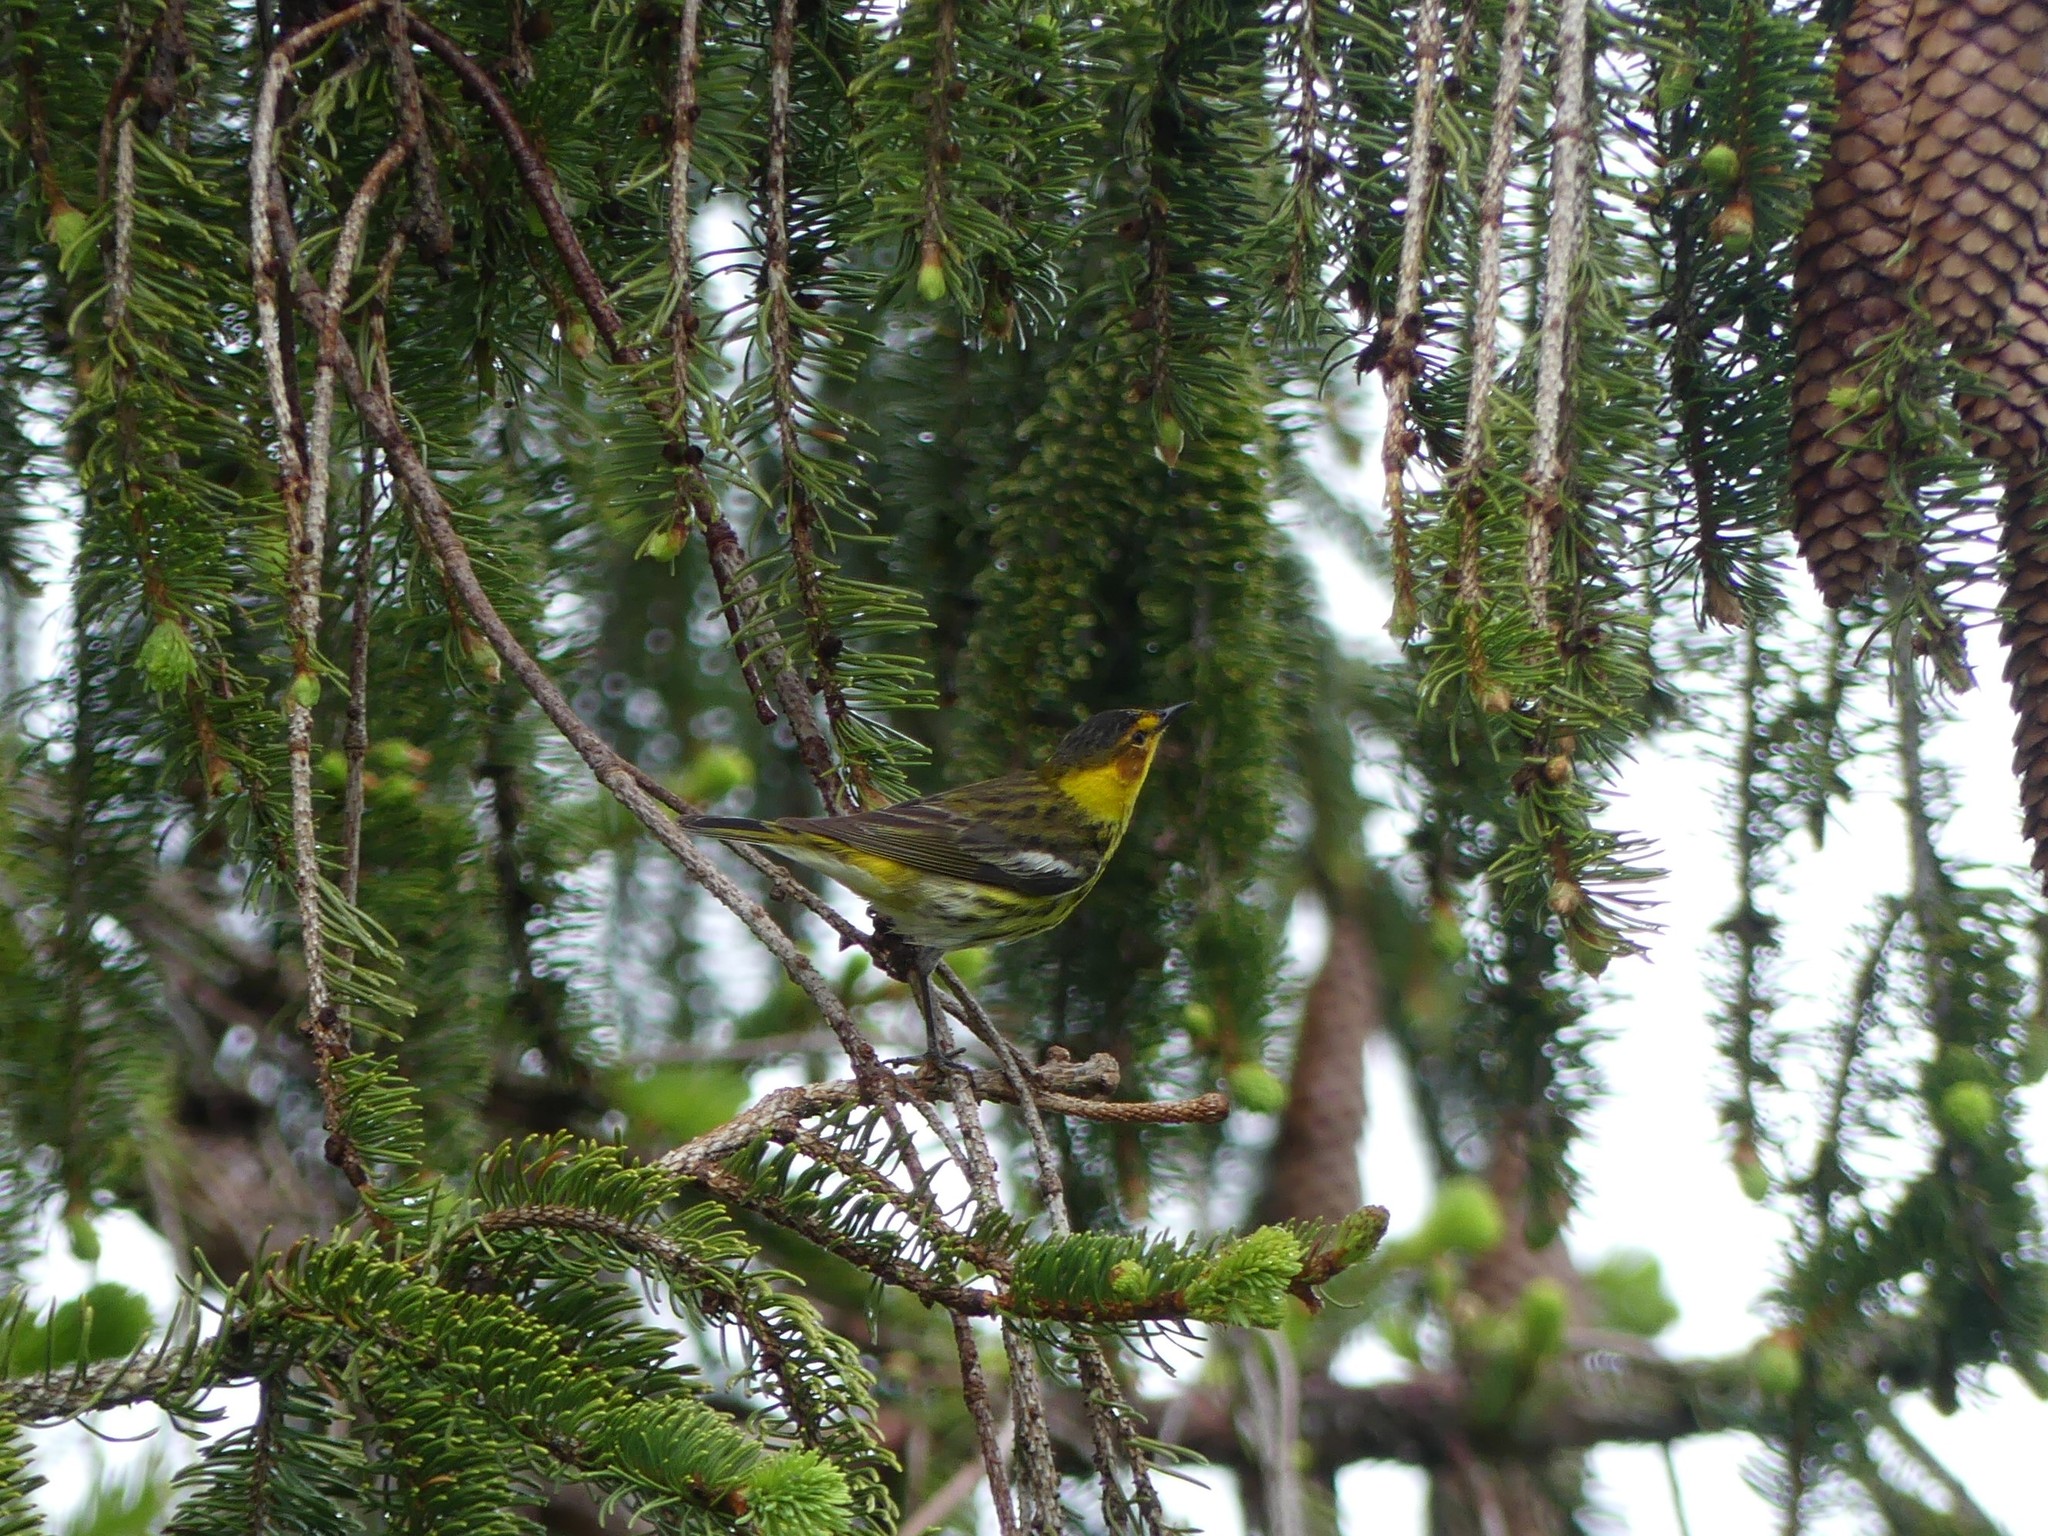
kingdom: Animalia
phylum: Chordata
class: Aves
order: Passeriformes
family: Parulidae
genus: Setophaga
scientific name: Setophaga tigrina
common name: Cape may warbler
